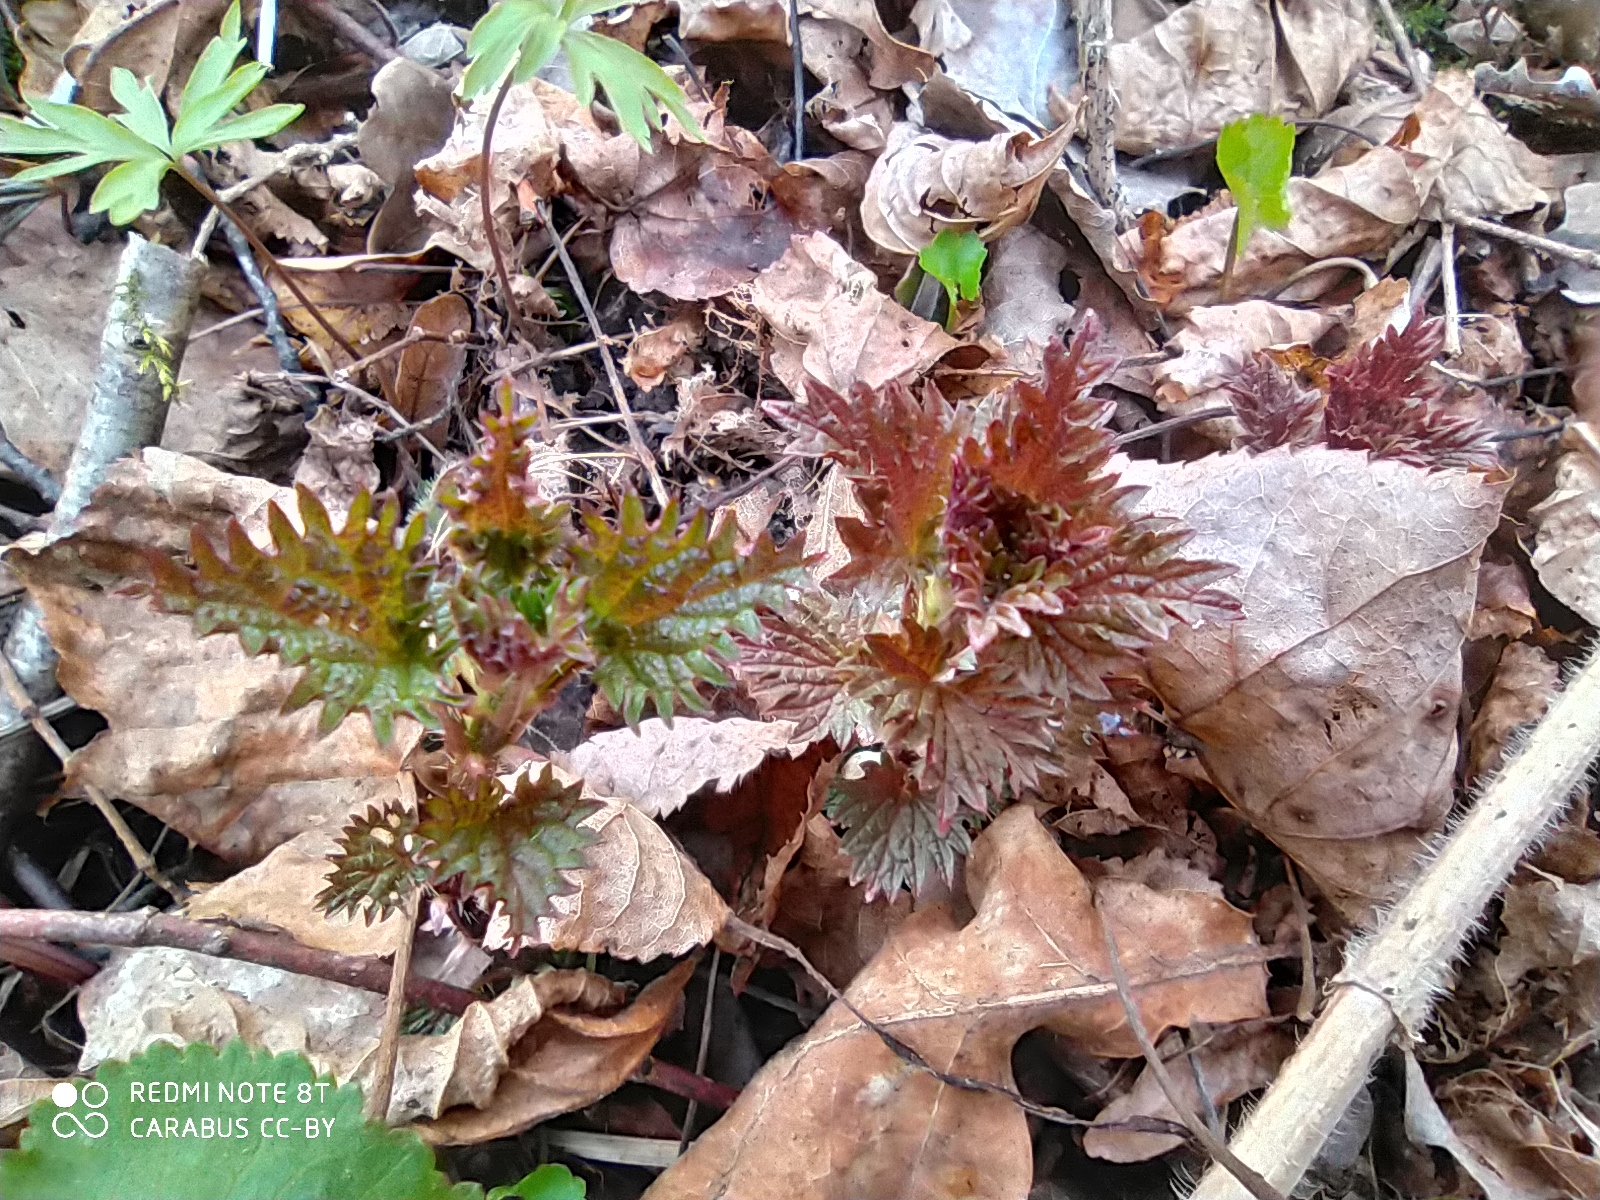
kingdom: Plantae
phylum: Tracheophyta
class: Magnoliopsida
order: Rosales
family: Urticaceae
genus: Urtica
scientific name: Urtica dioica
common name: Common nettle
